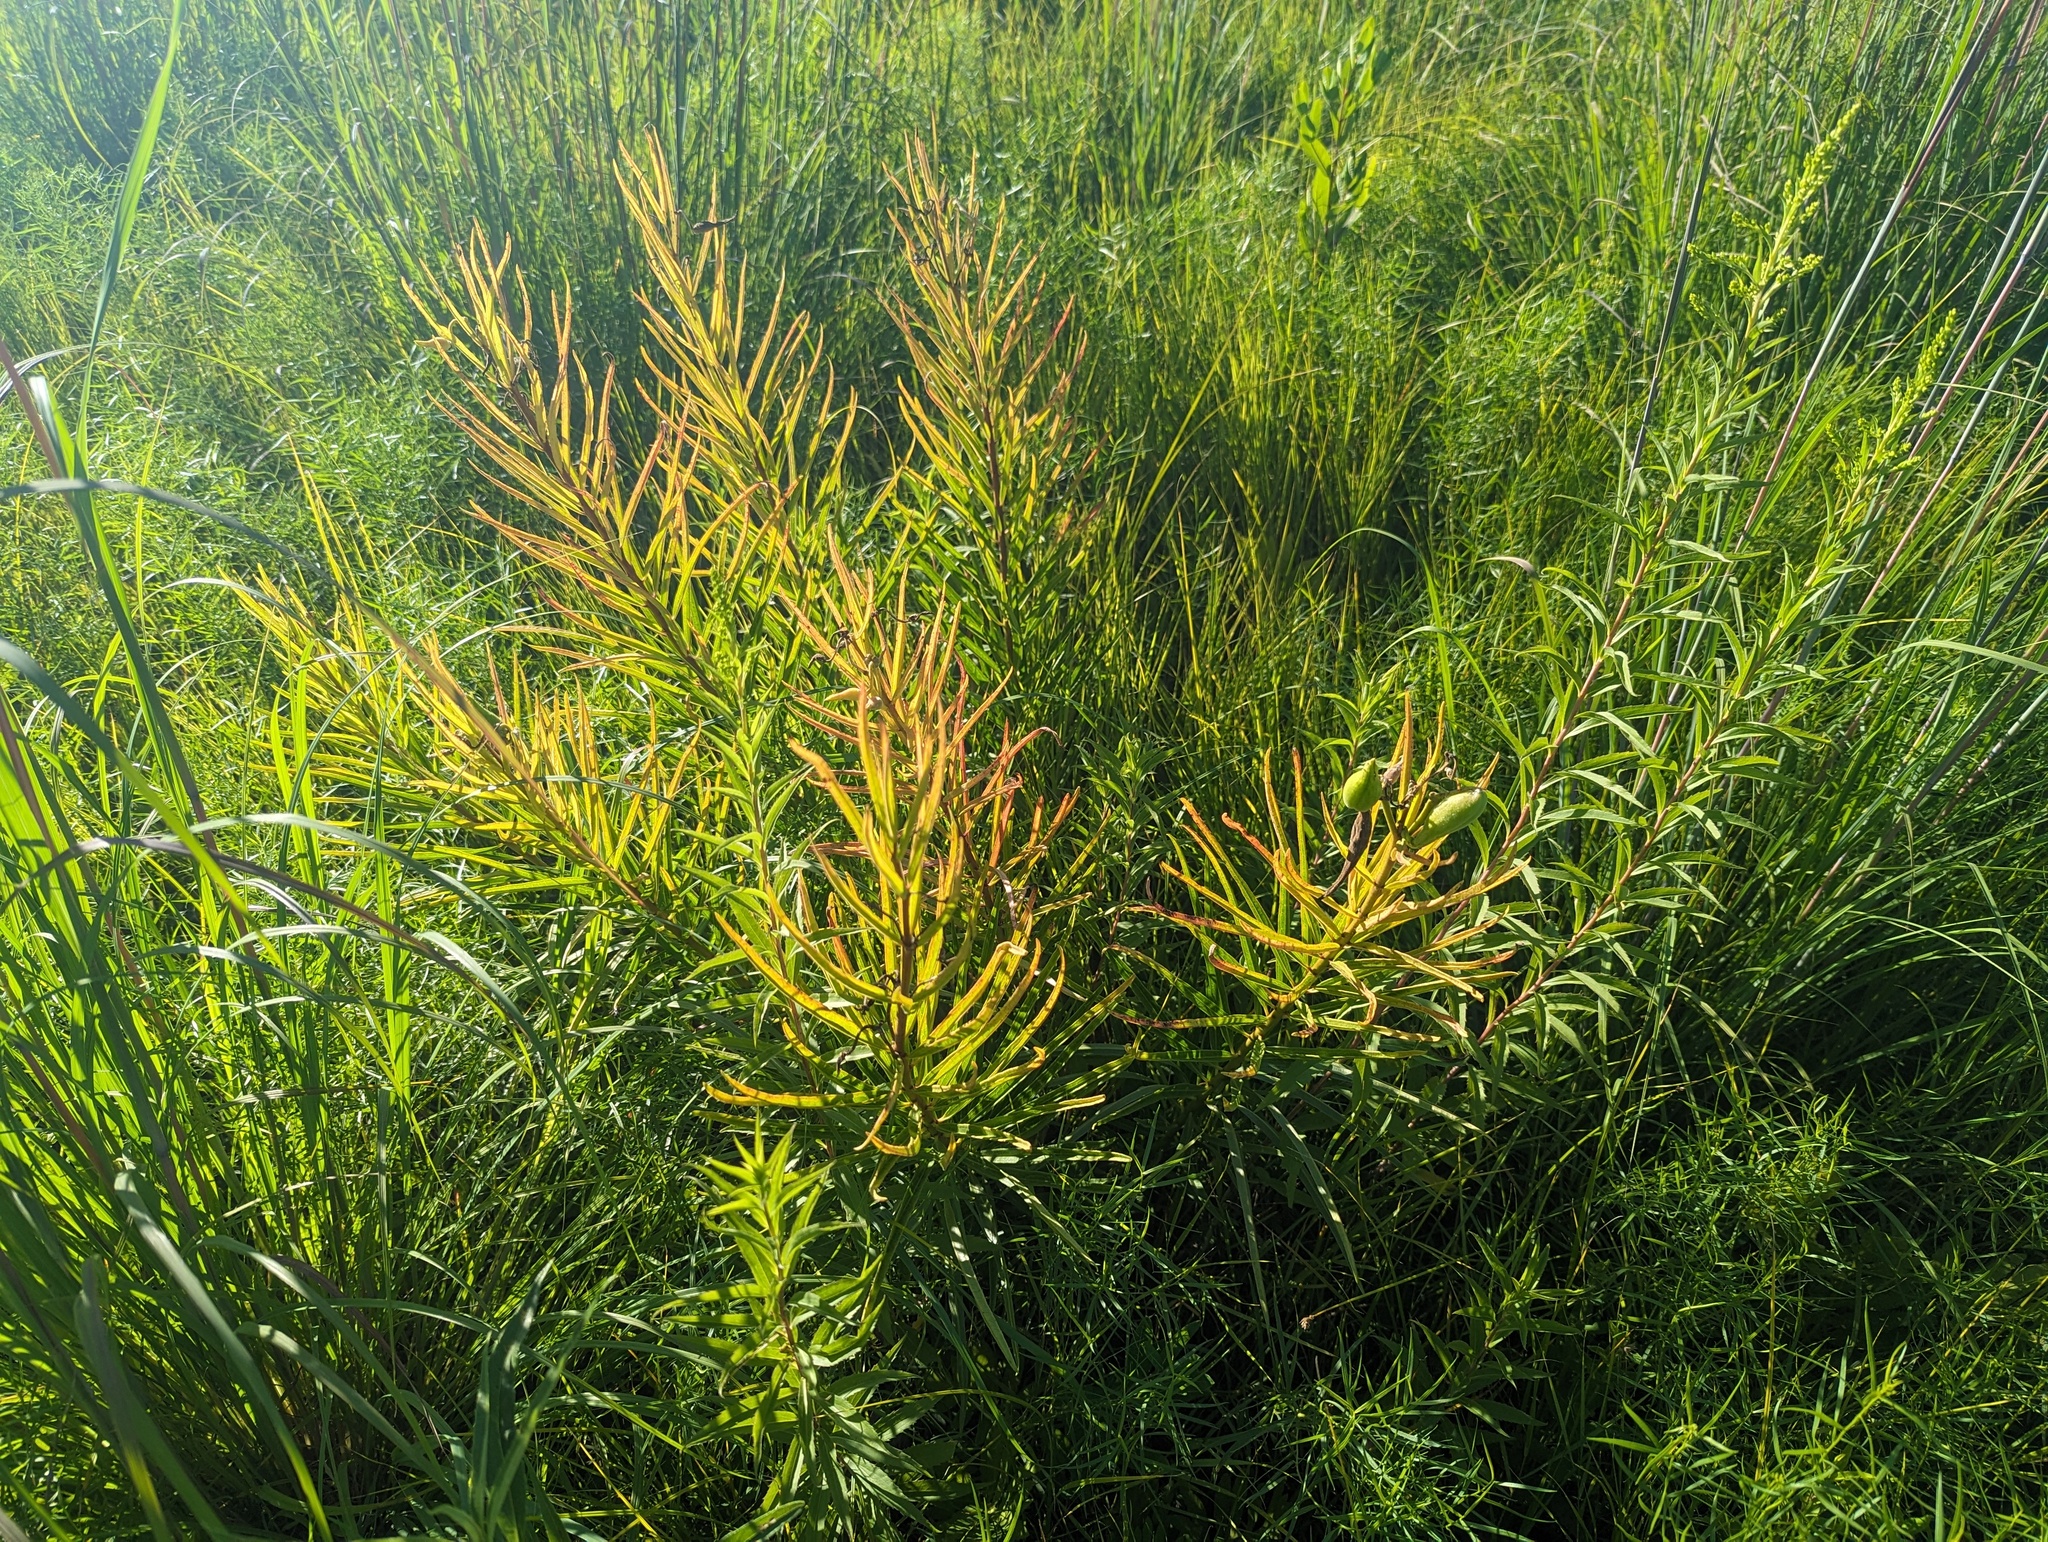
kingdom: Plantae
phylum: Tracheophyta
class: Magnoliopsida
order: Gentianales
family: Apocynaceae
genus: Asclepias
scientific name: Asclepias hirtella
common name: Prairie milkweed
